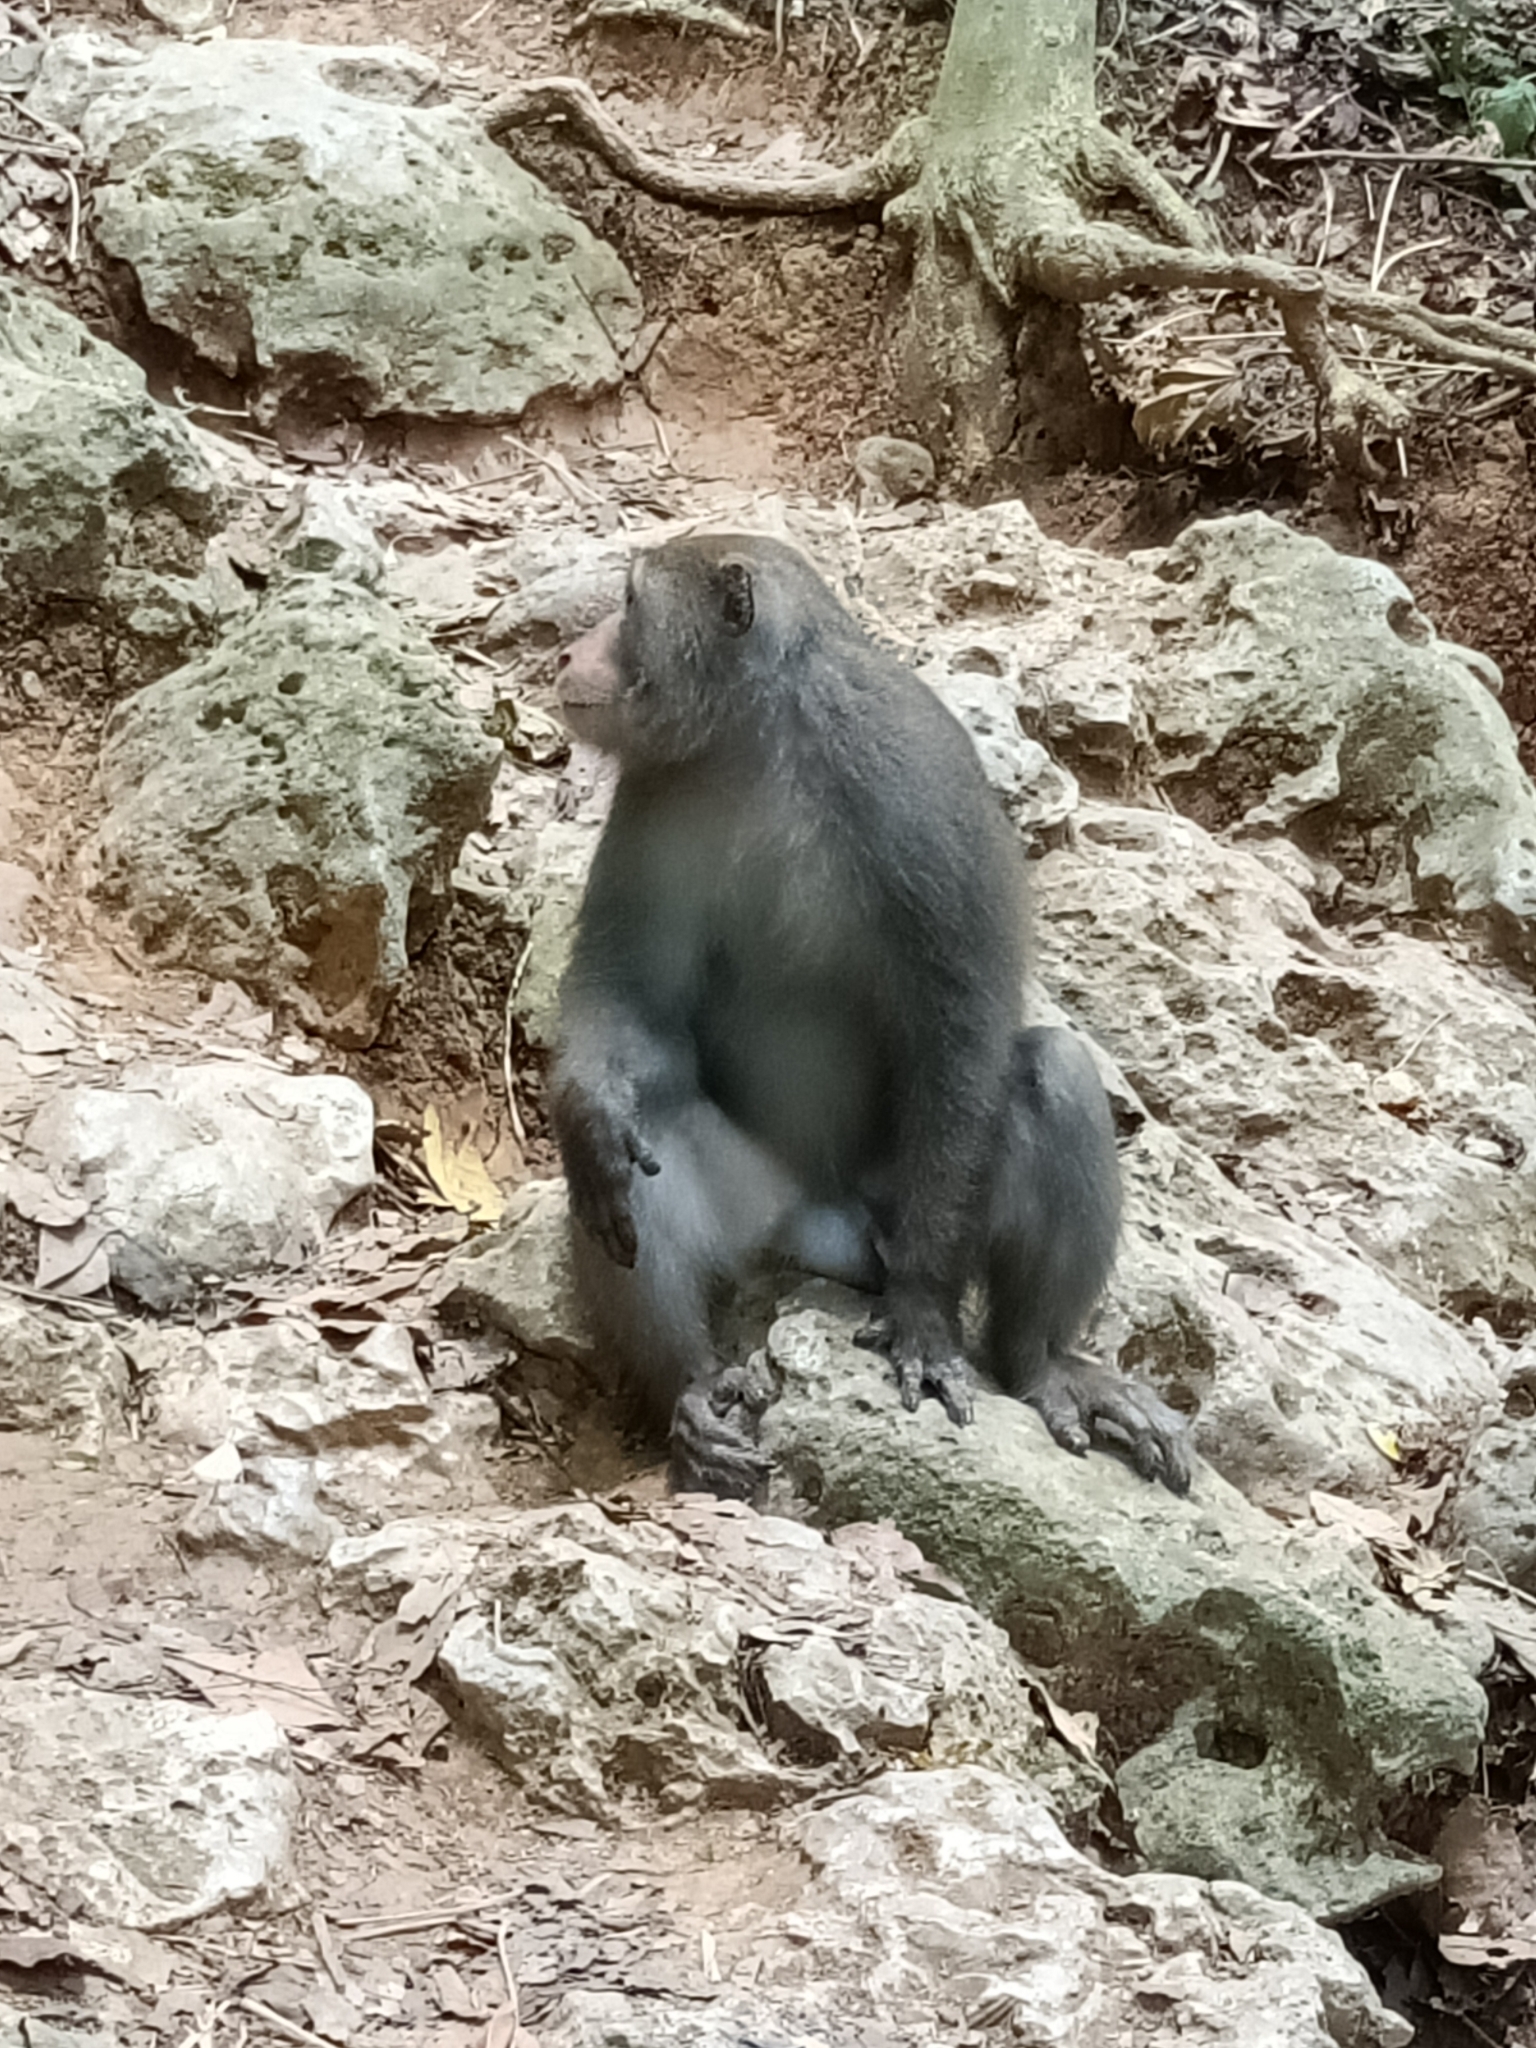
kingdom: Animalia
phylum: Chordata
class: Mammalia
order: Primates
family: Cercopithecidae
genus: Macaca
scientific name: Macaca cyclopis
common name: Formosan rock macaque
